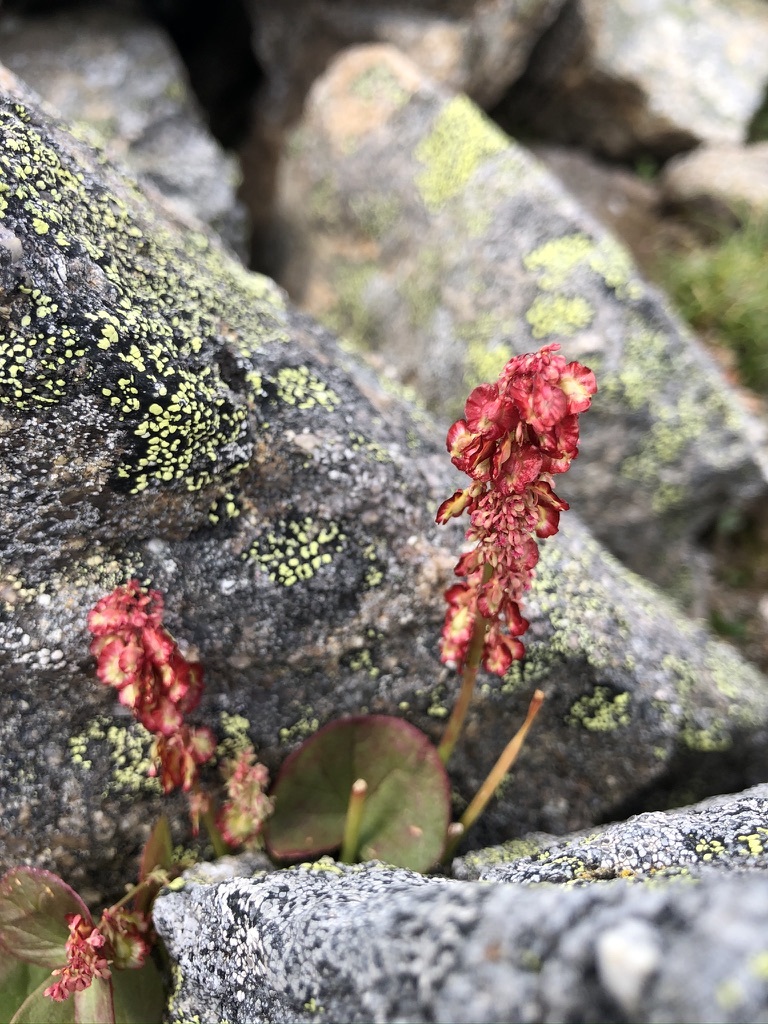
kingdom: Plantae
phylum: Tracheophyta
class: Magnoliopsida
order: Caryophyllales
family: Polygonaceae
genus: Oxyria
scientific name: Oxyria digyna
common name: Alpine mountain-sorrel
